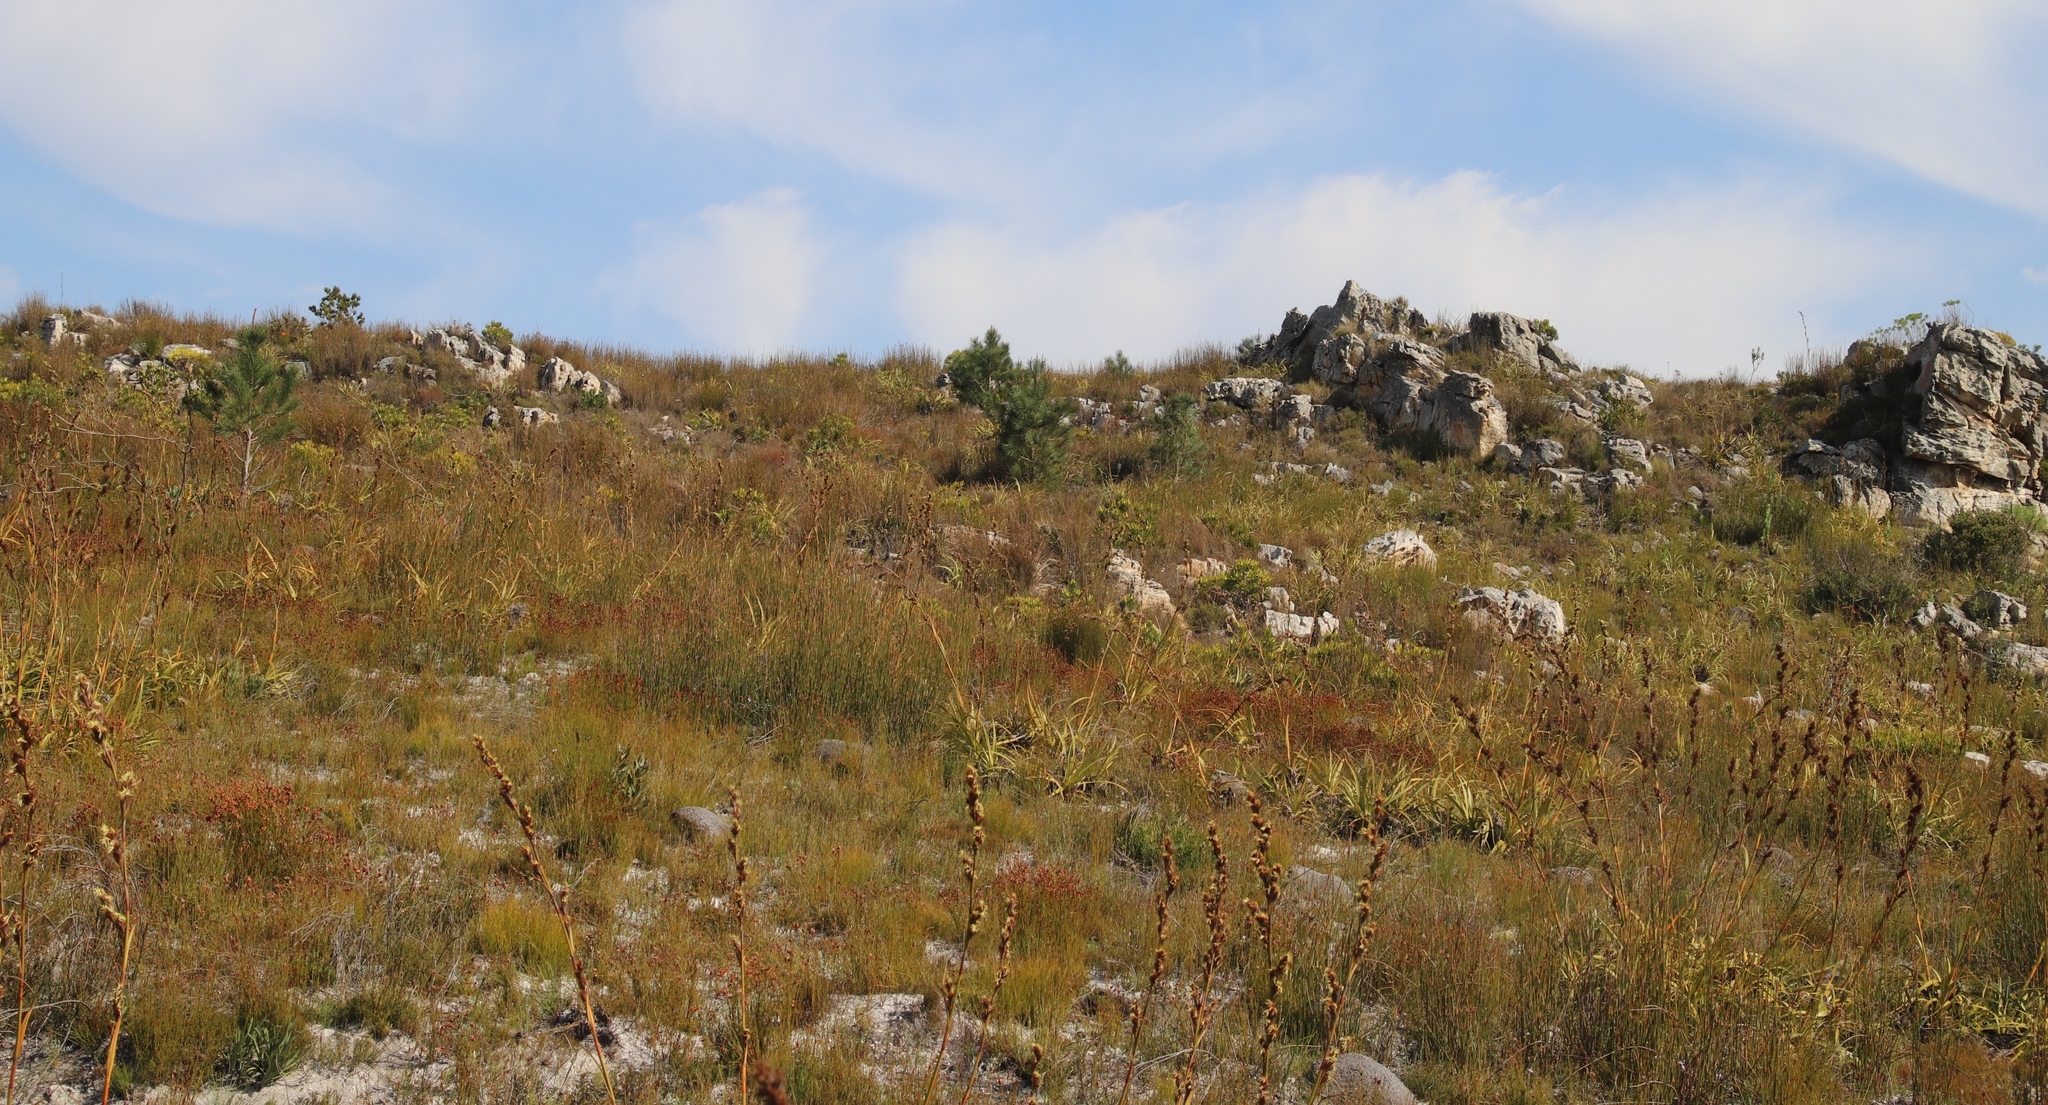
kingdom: Plantae
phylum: Tracheophyta
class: Pinopsida
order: Pinales
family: Pinaceae
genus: Pinus
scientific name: Pinus pinaster
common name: Maritime pine
